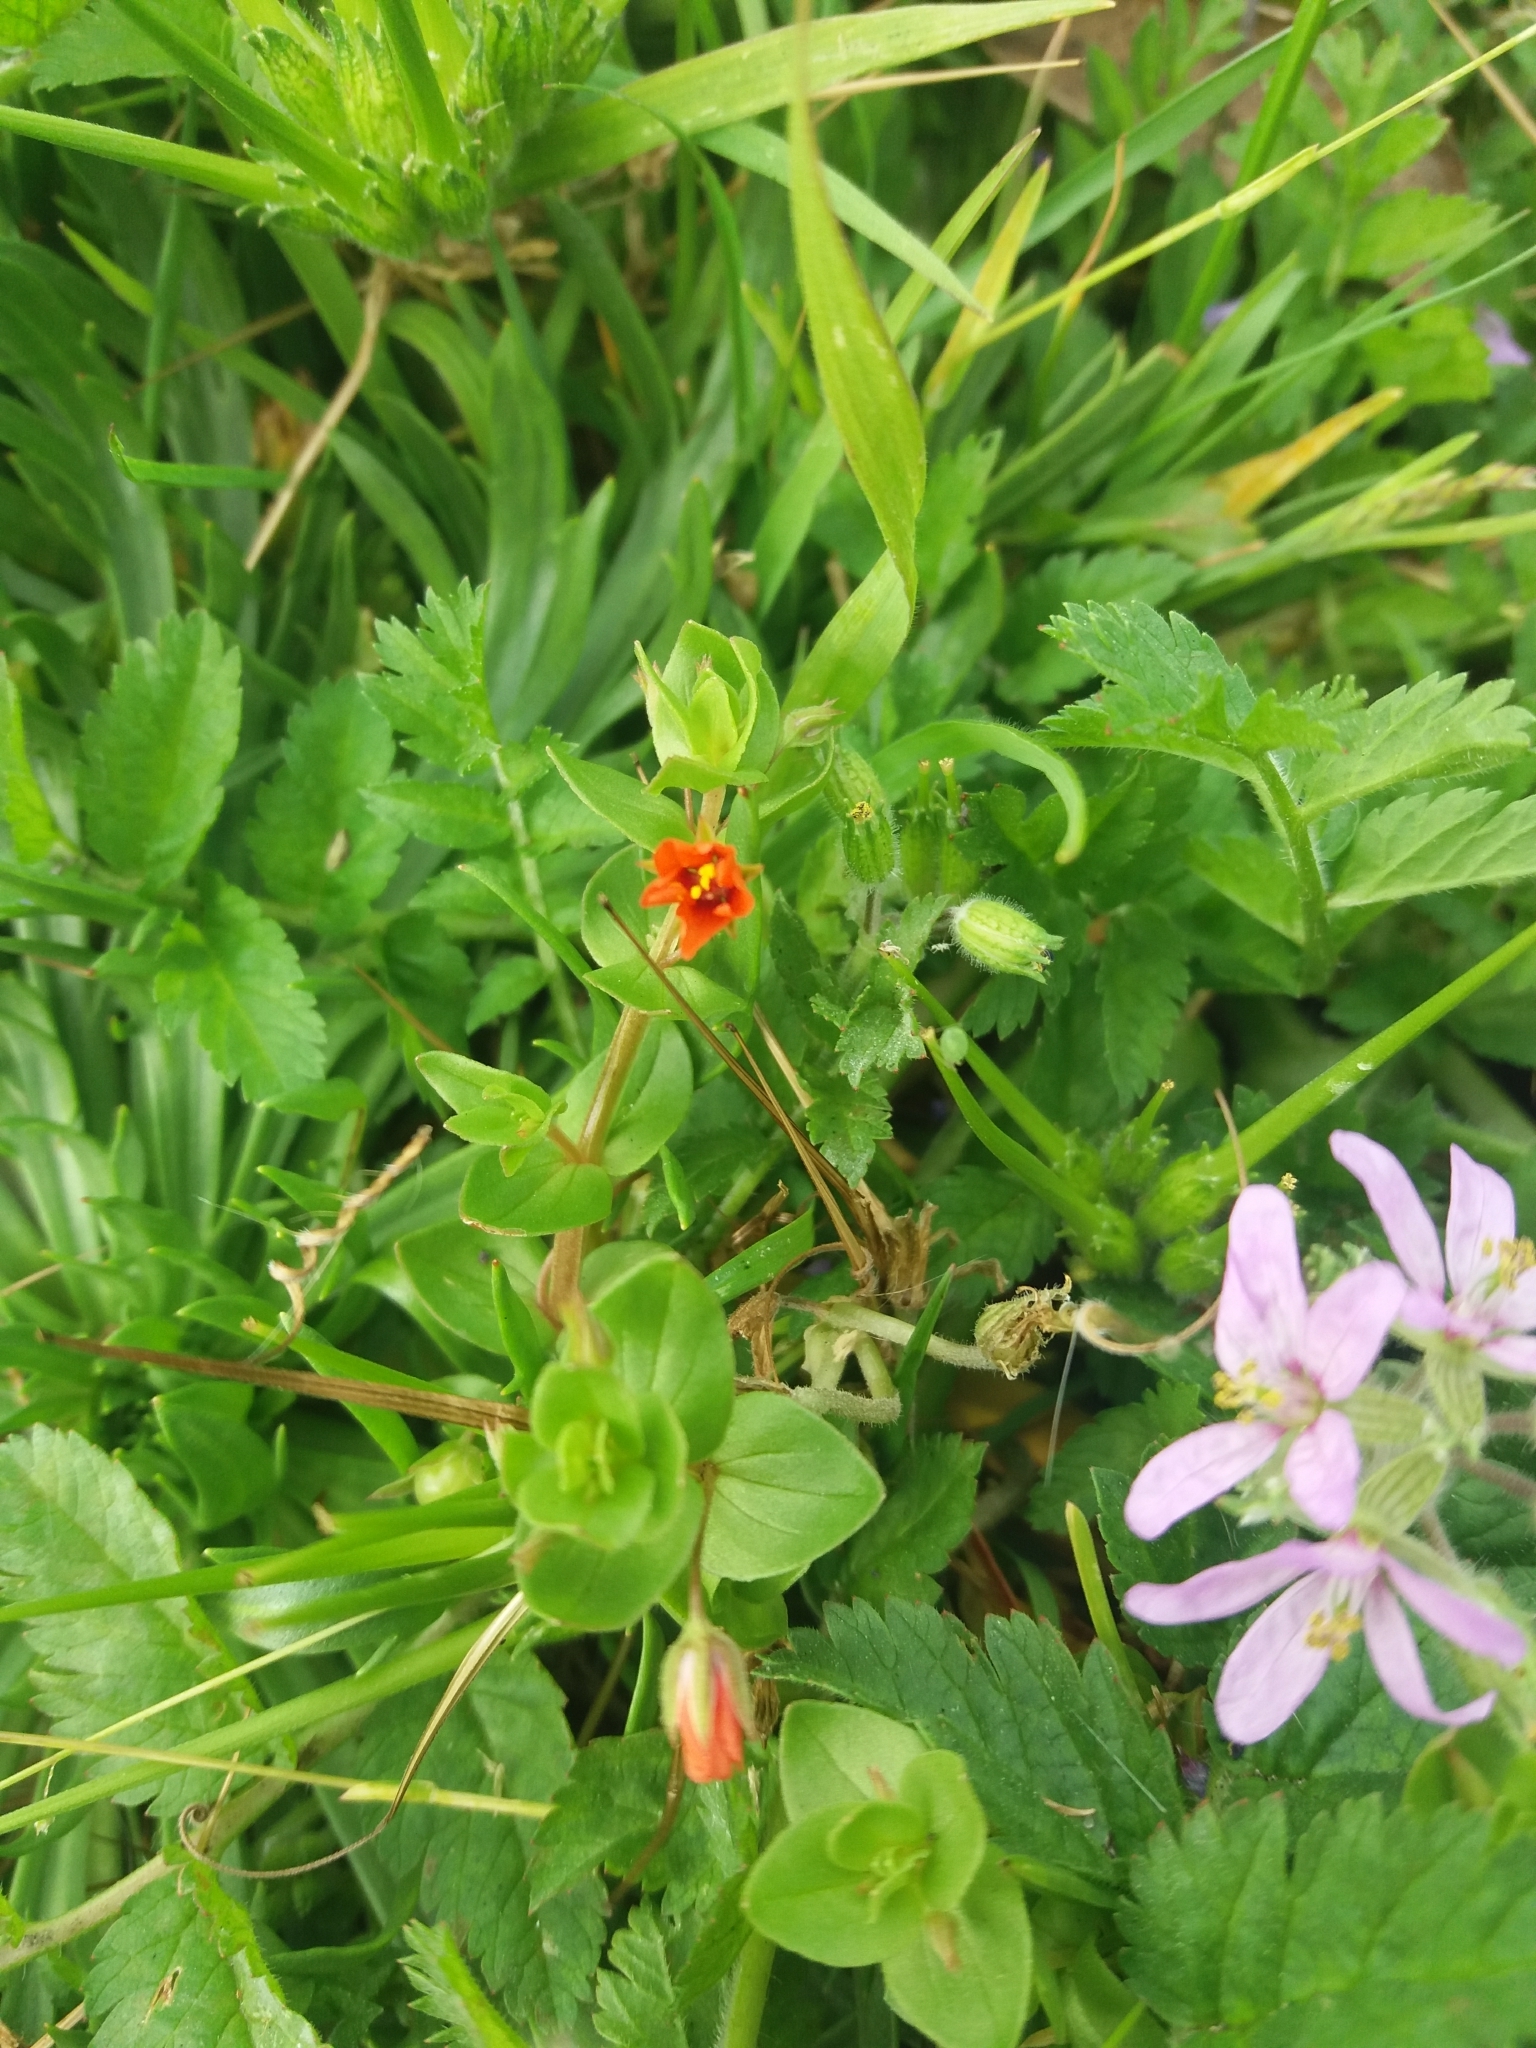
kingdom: Plantae
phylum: Tracheophyta
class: Magnoliopsida
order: Ericales
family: Primulaceae
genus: Lysimachia
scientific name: Lysimachia arvensis
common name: Scarlet pimpernel
